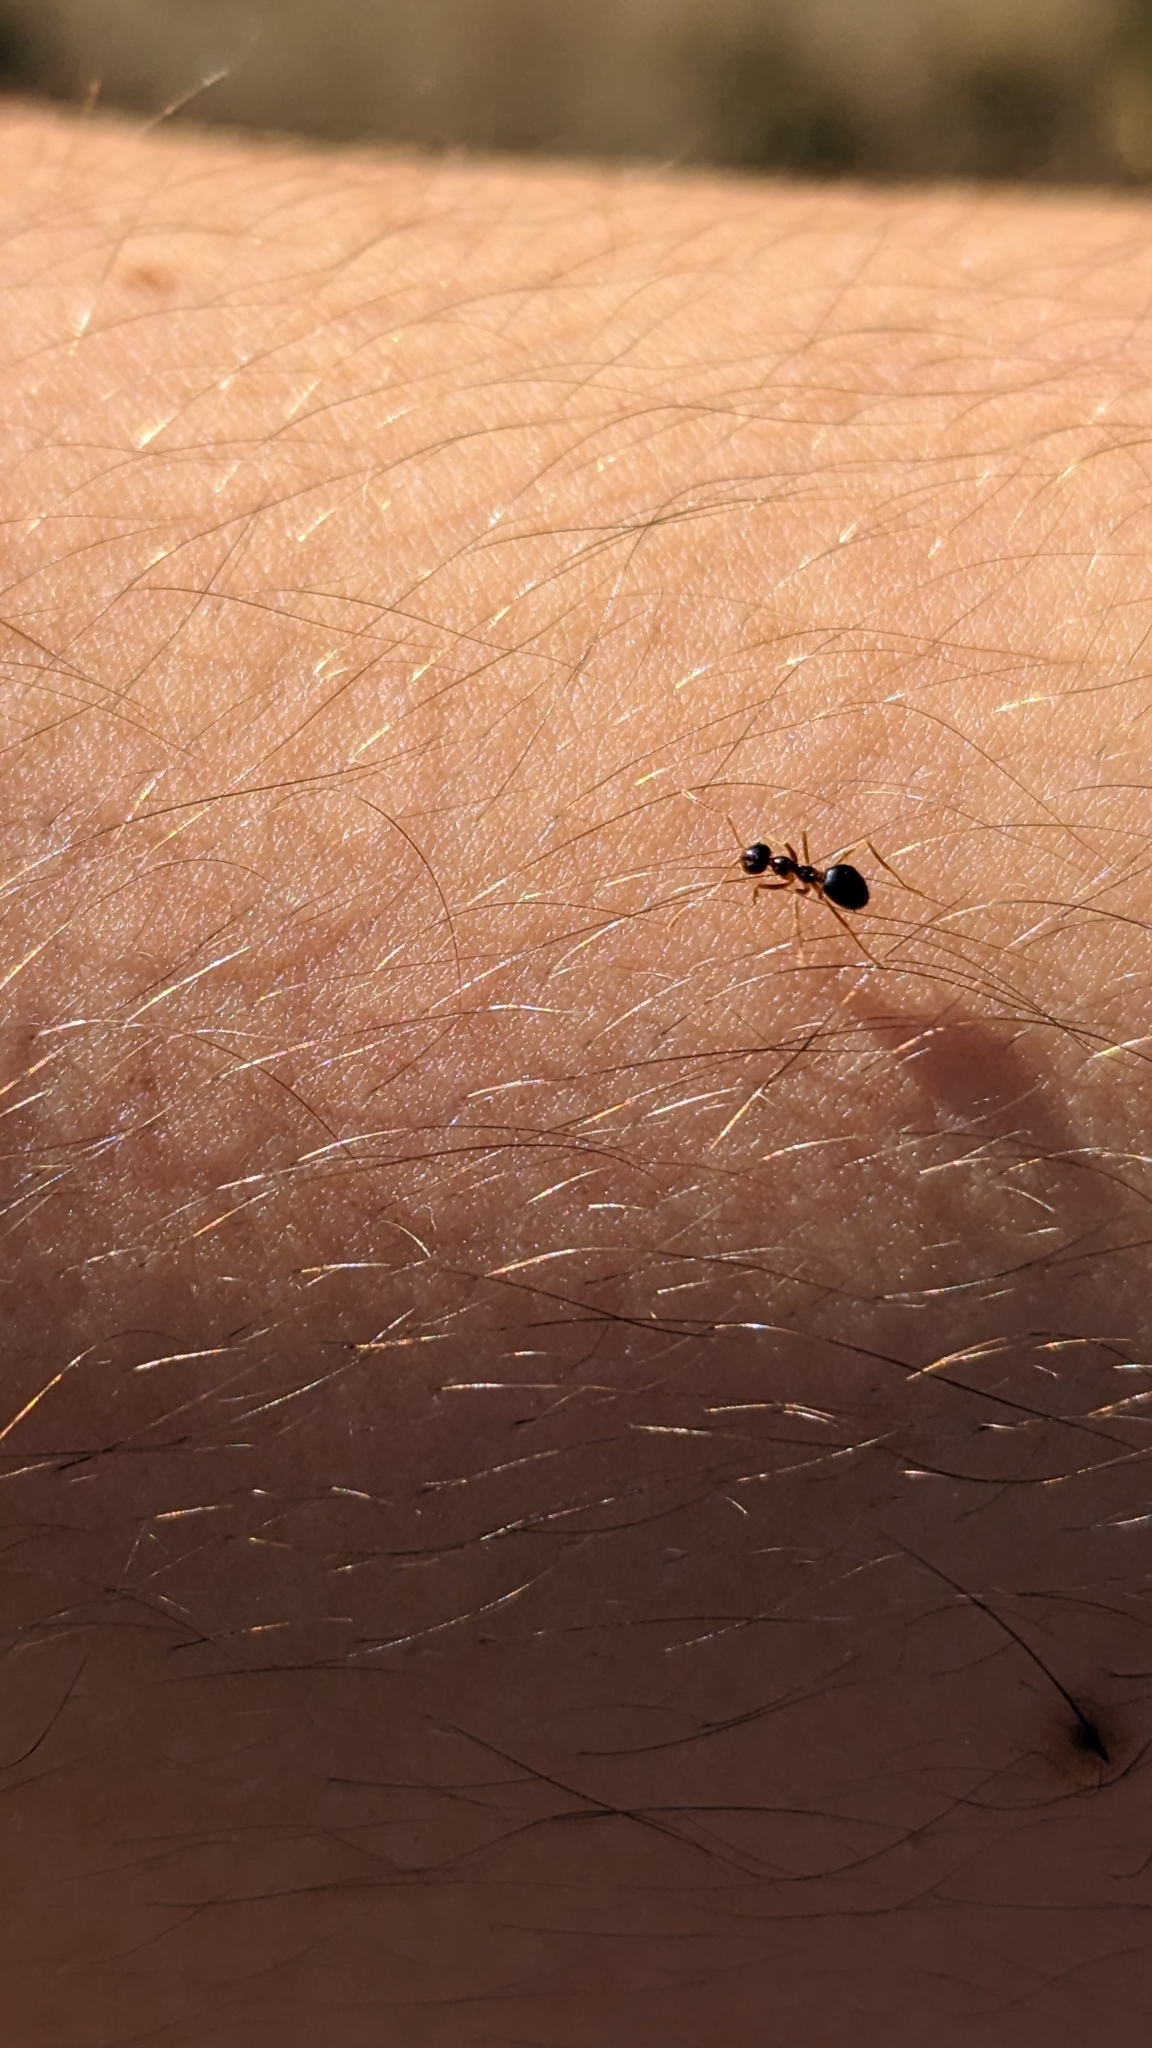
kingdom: Animalia
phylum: Arthropoda
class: Insecta
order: Hymenoptera
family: Formicidae
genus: Prenolepis
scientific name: Prenolepis imparis
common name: Small honey ant
